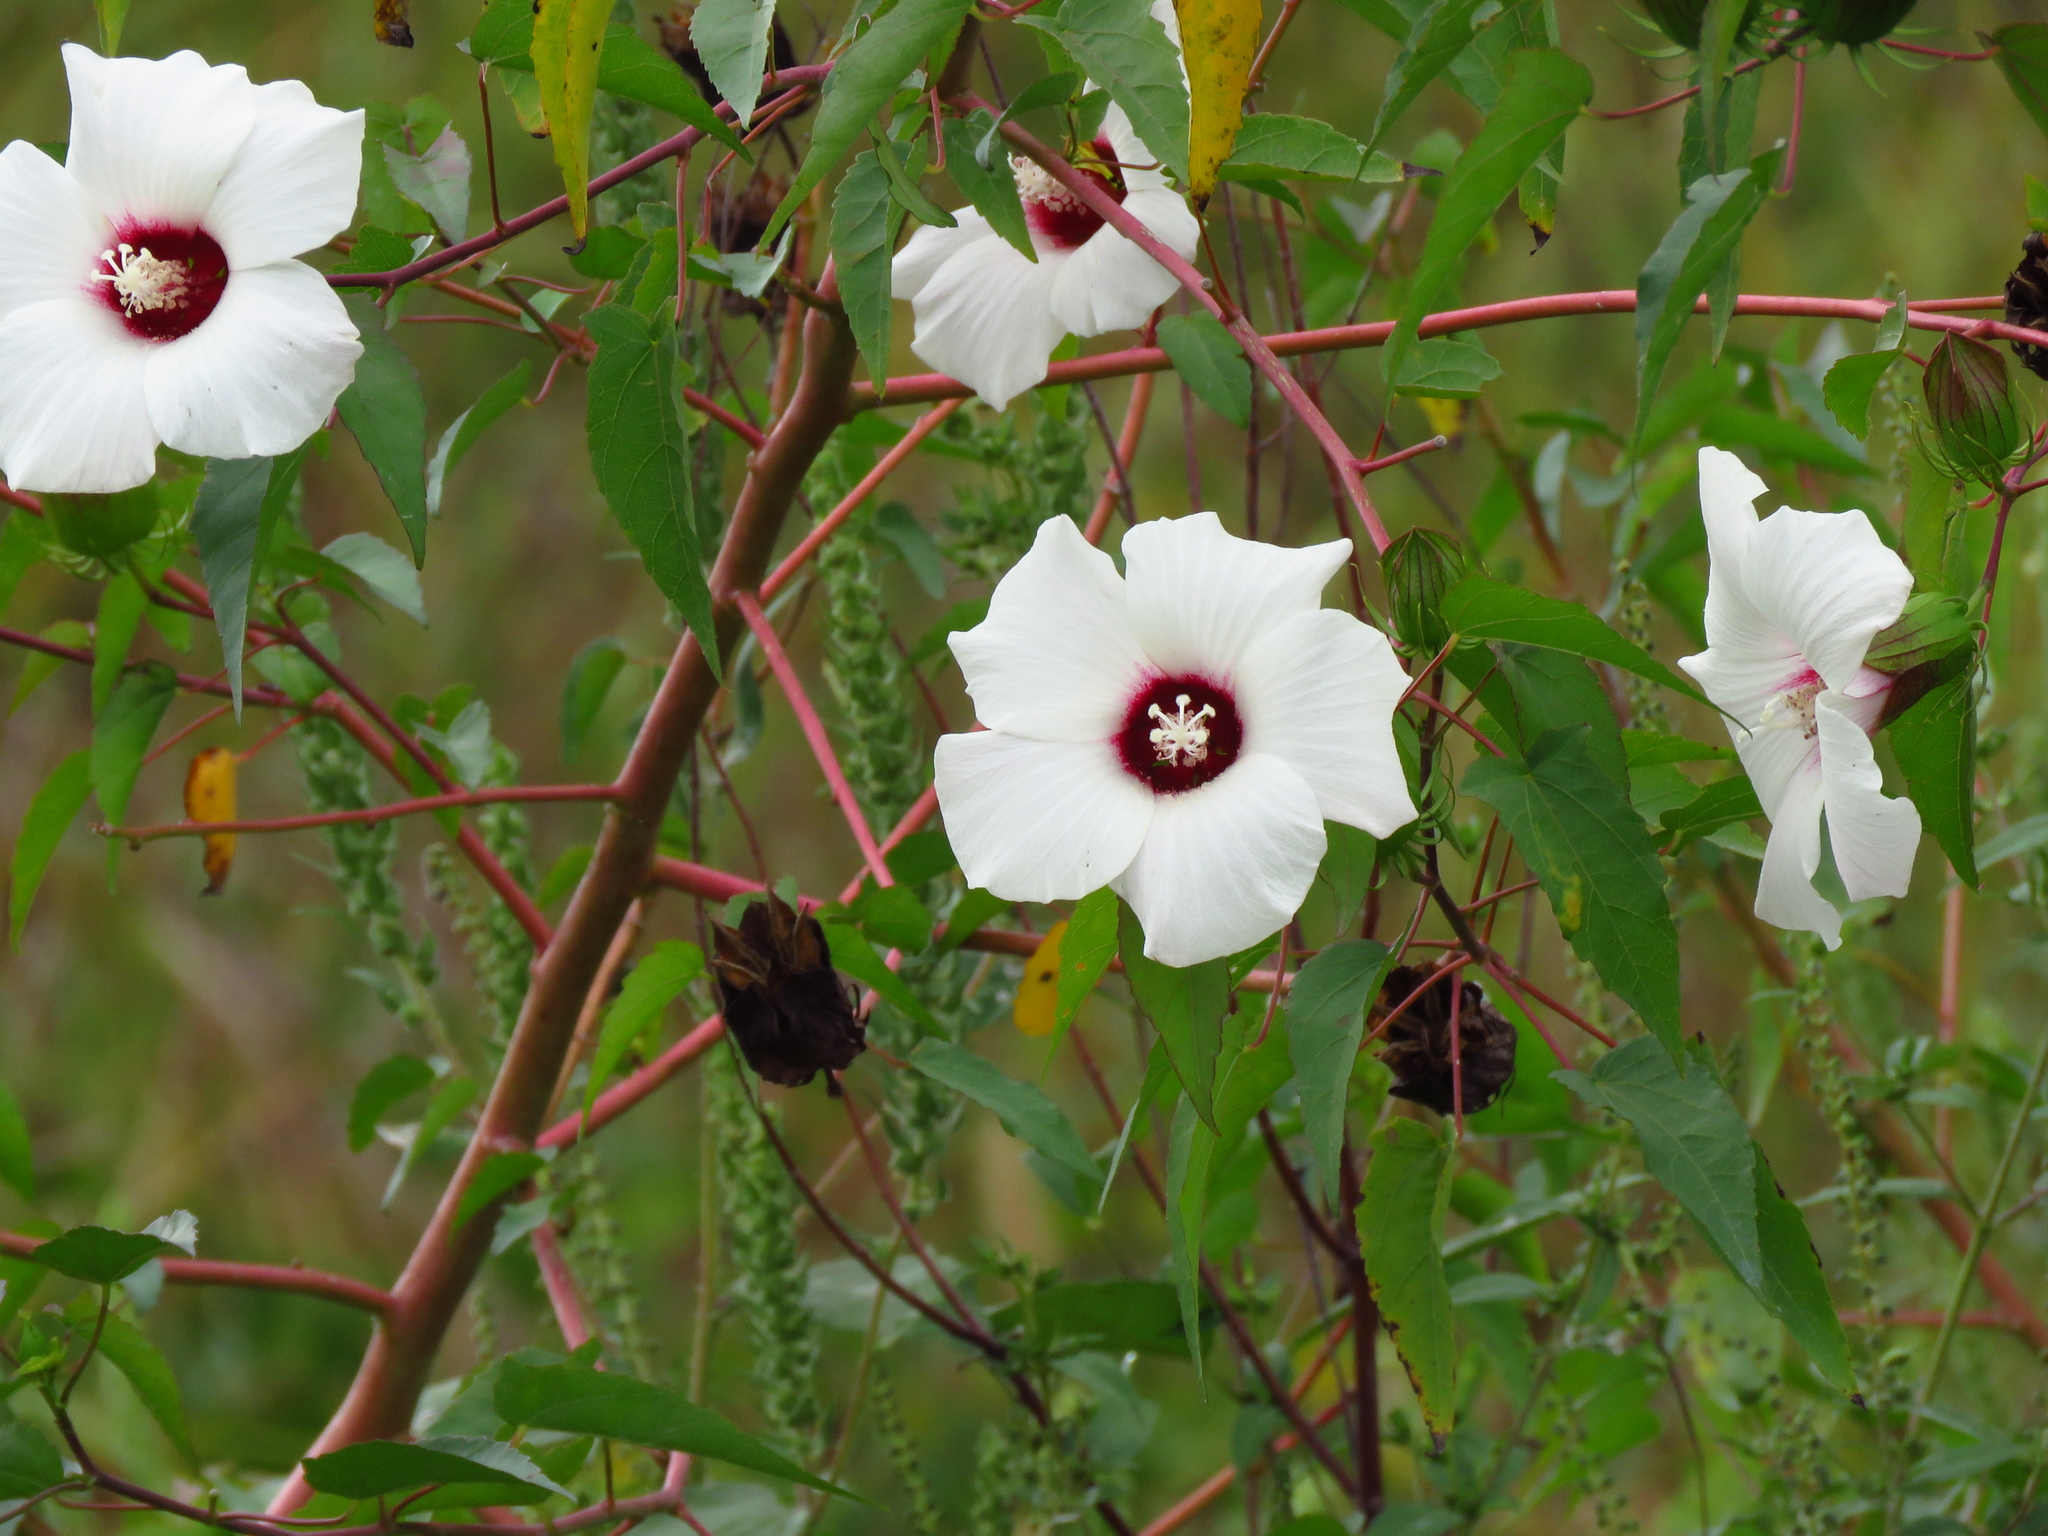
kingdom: Plantae
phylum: Tracheophyta
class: Magnoliopsida
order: Malvales
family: Malvaceae
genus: Hibiscus
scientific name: Hibiscus laevis
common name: Scarlet rose-mallow
